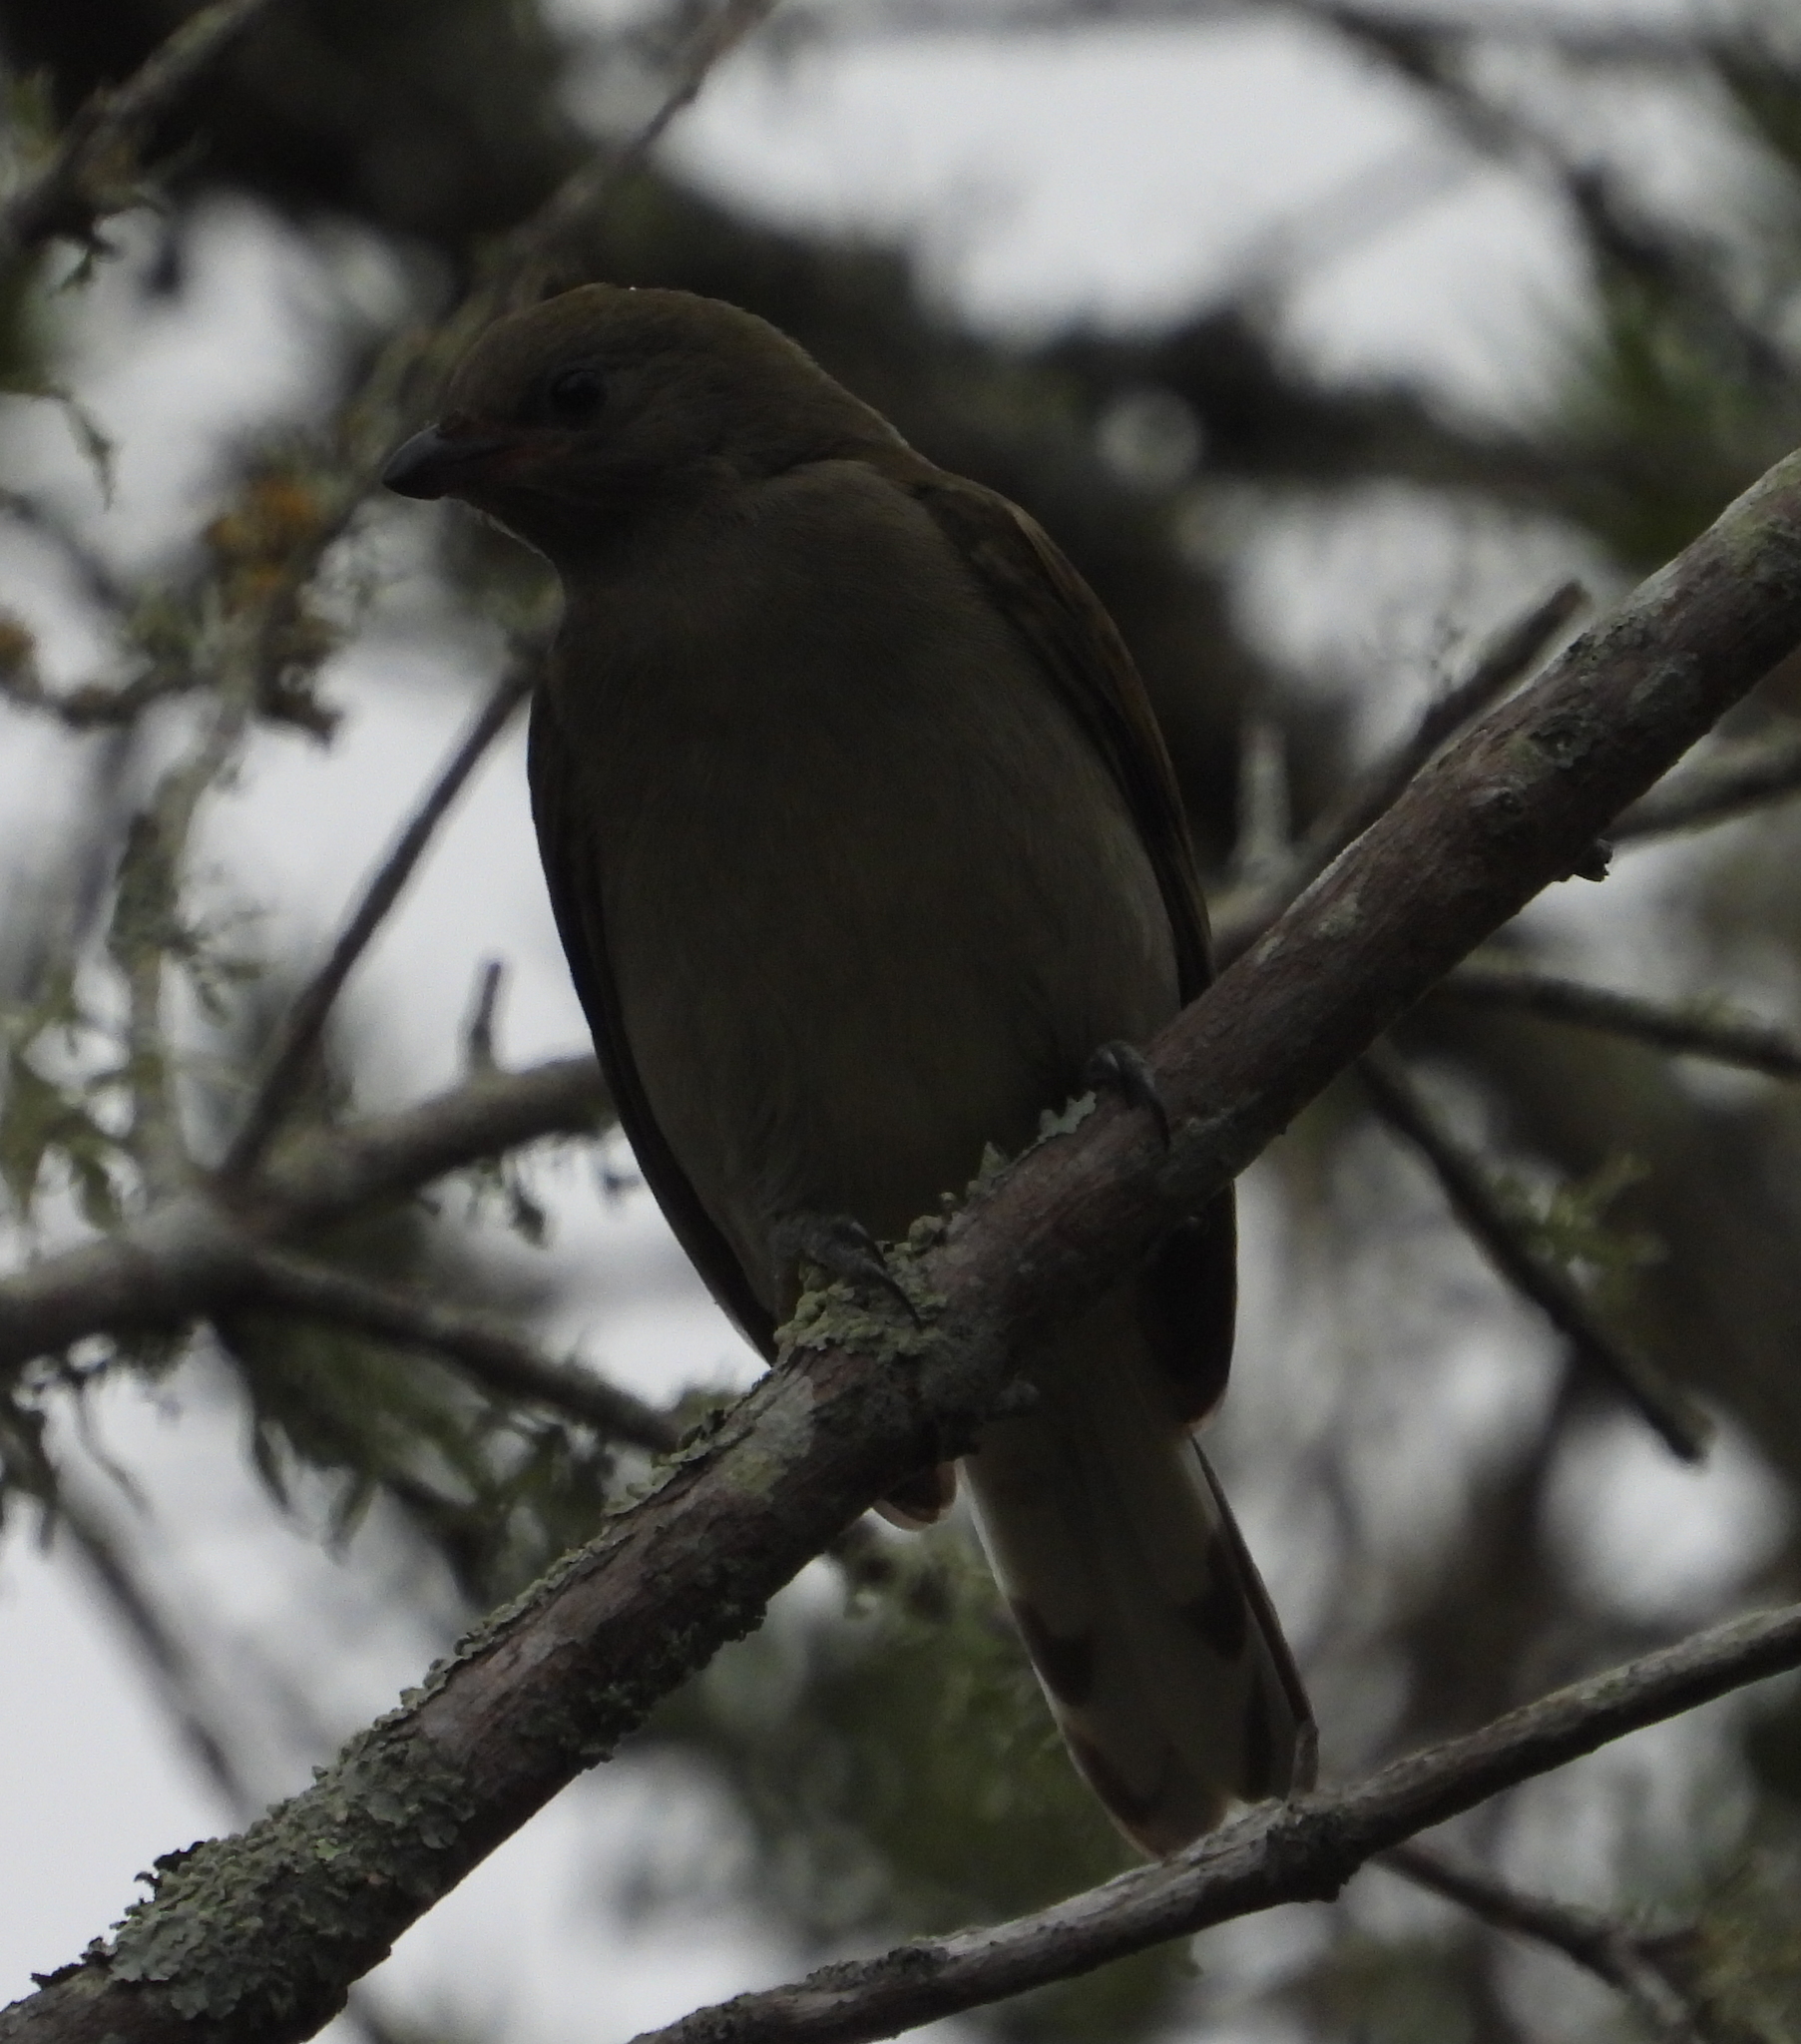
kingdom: Animalia
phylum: Chordata
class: Aves
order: Piciformes
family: Indicatoridae
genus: Indicator
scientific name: Indicator minor
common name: Lesser honeyguide
